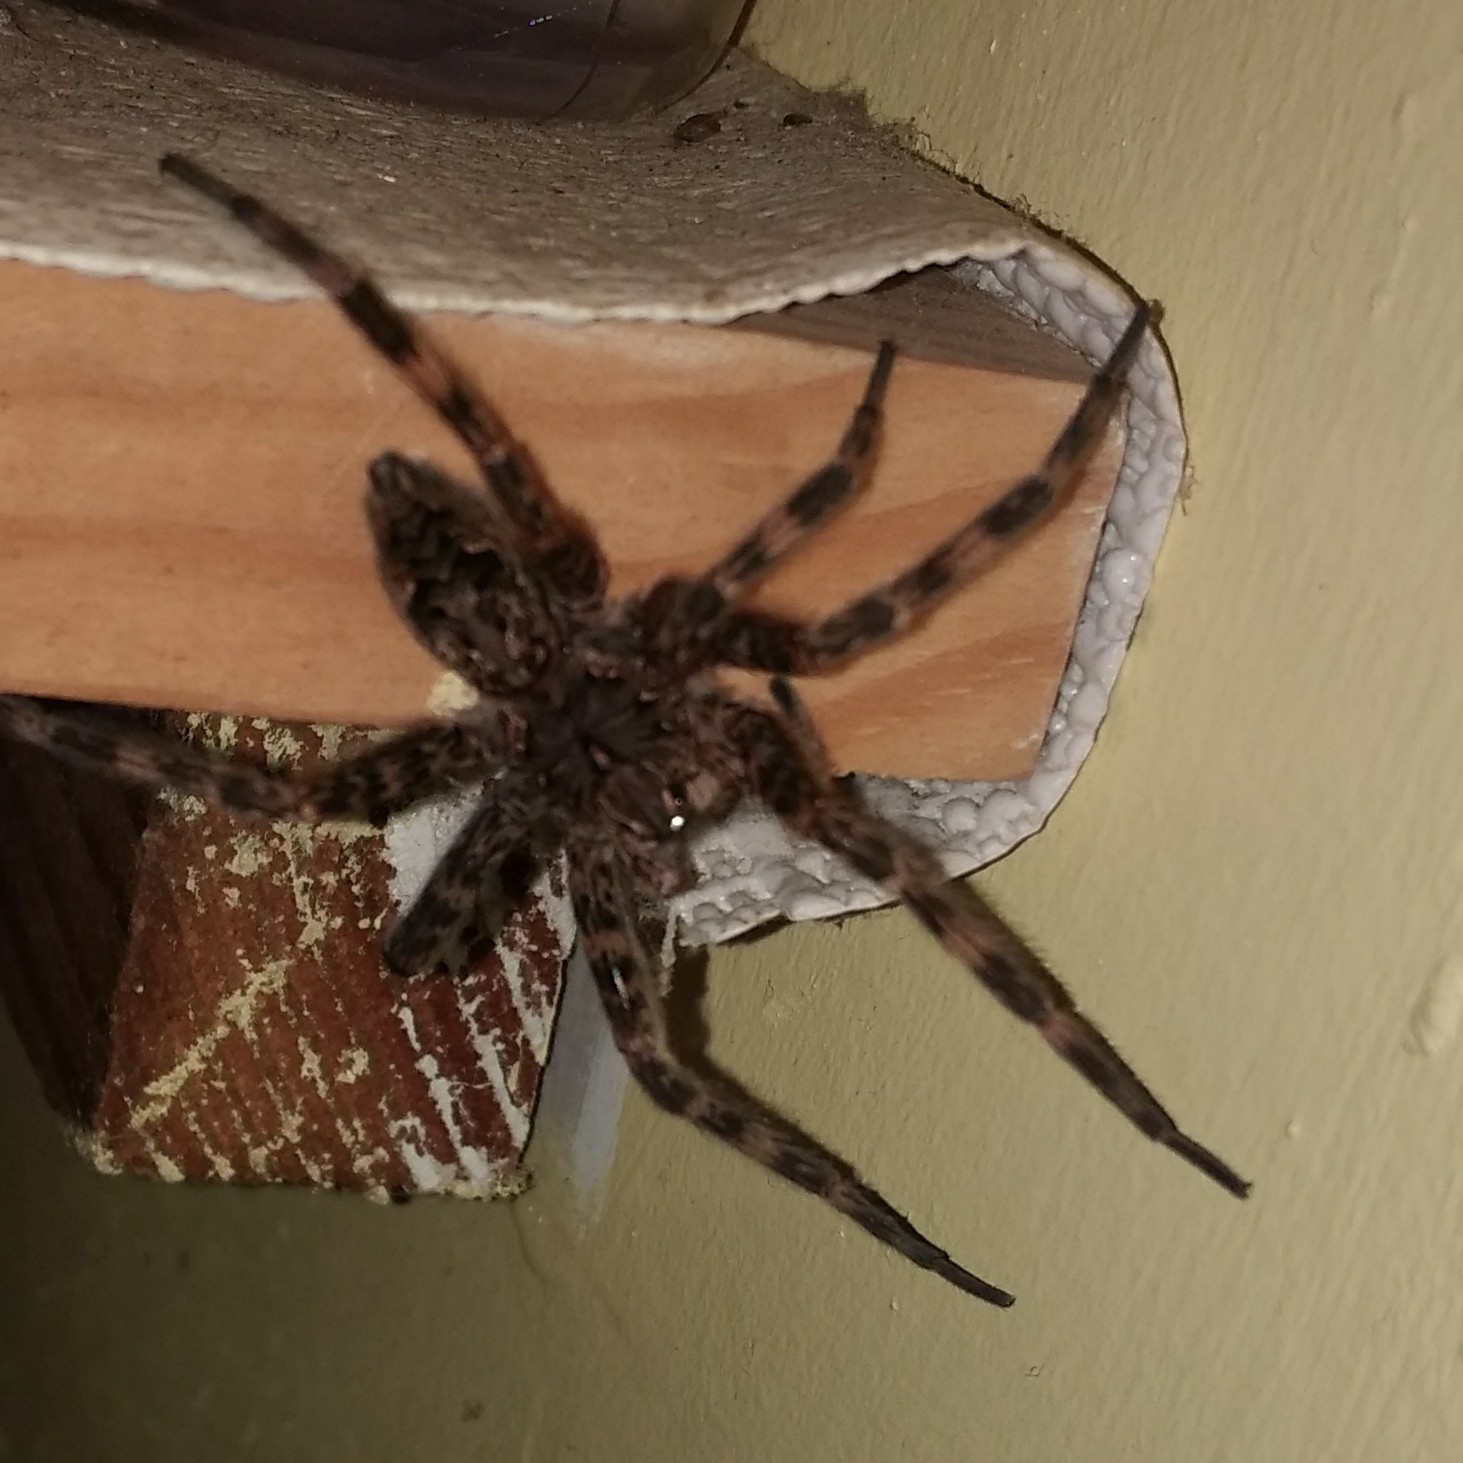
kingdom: Animalia
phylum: Arthropoda
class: Arachnida
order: Araneae
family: Pisauridae
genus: Dolomedes
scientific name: Dolomedes tenebrosus
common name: Dark fishing spider
